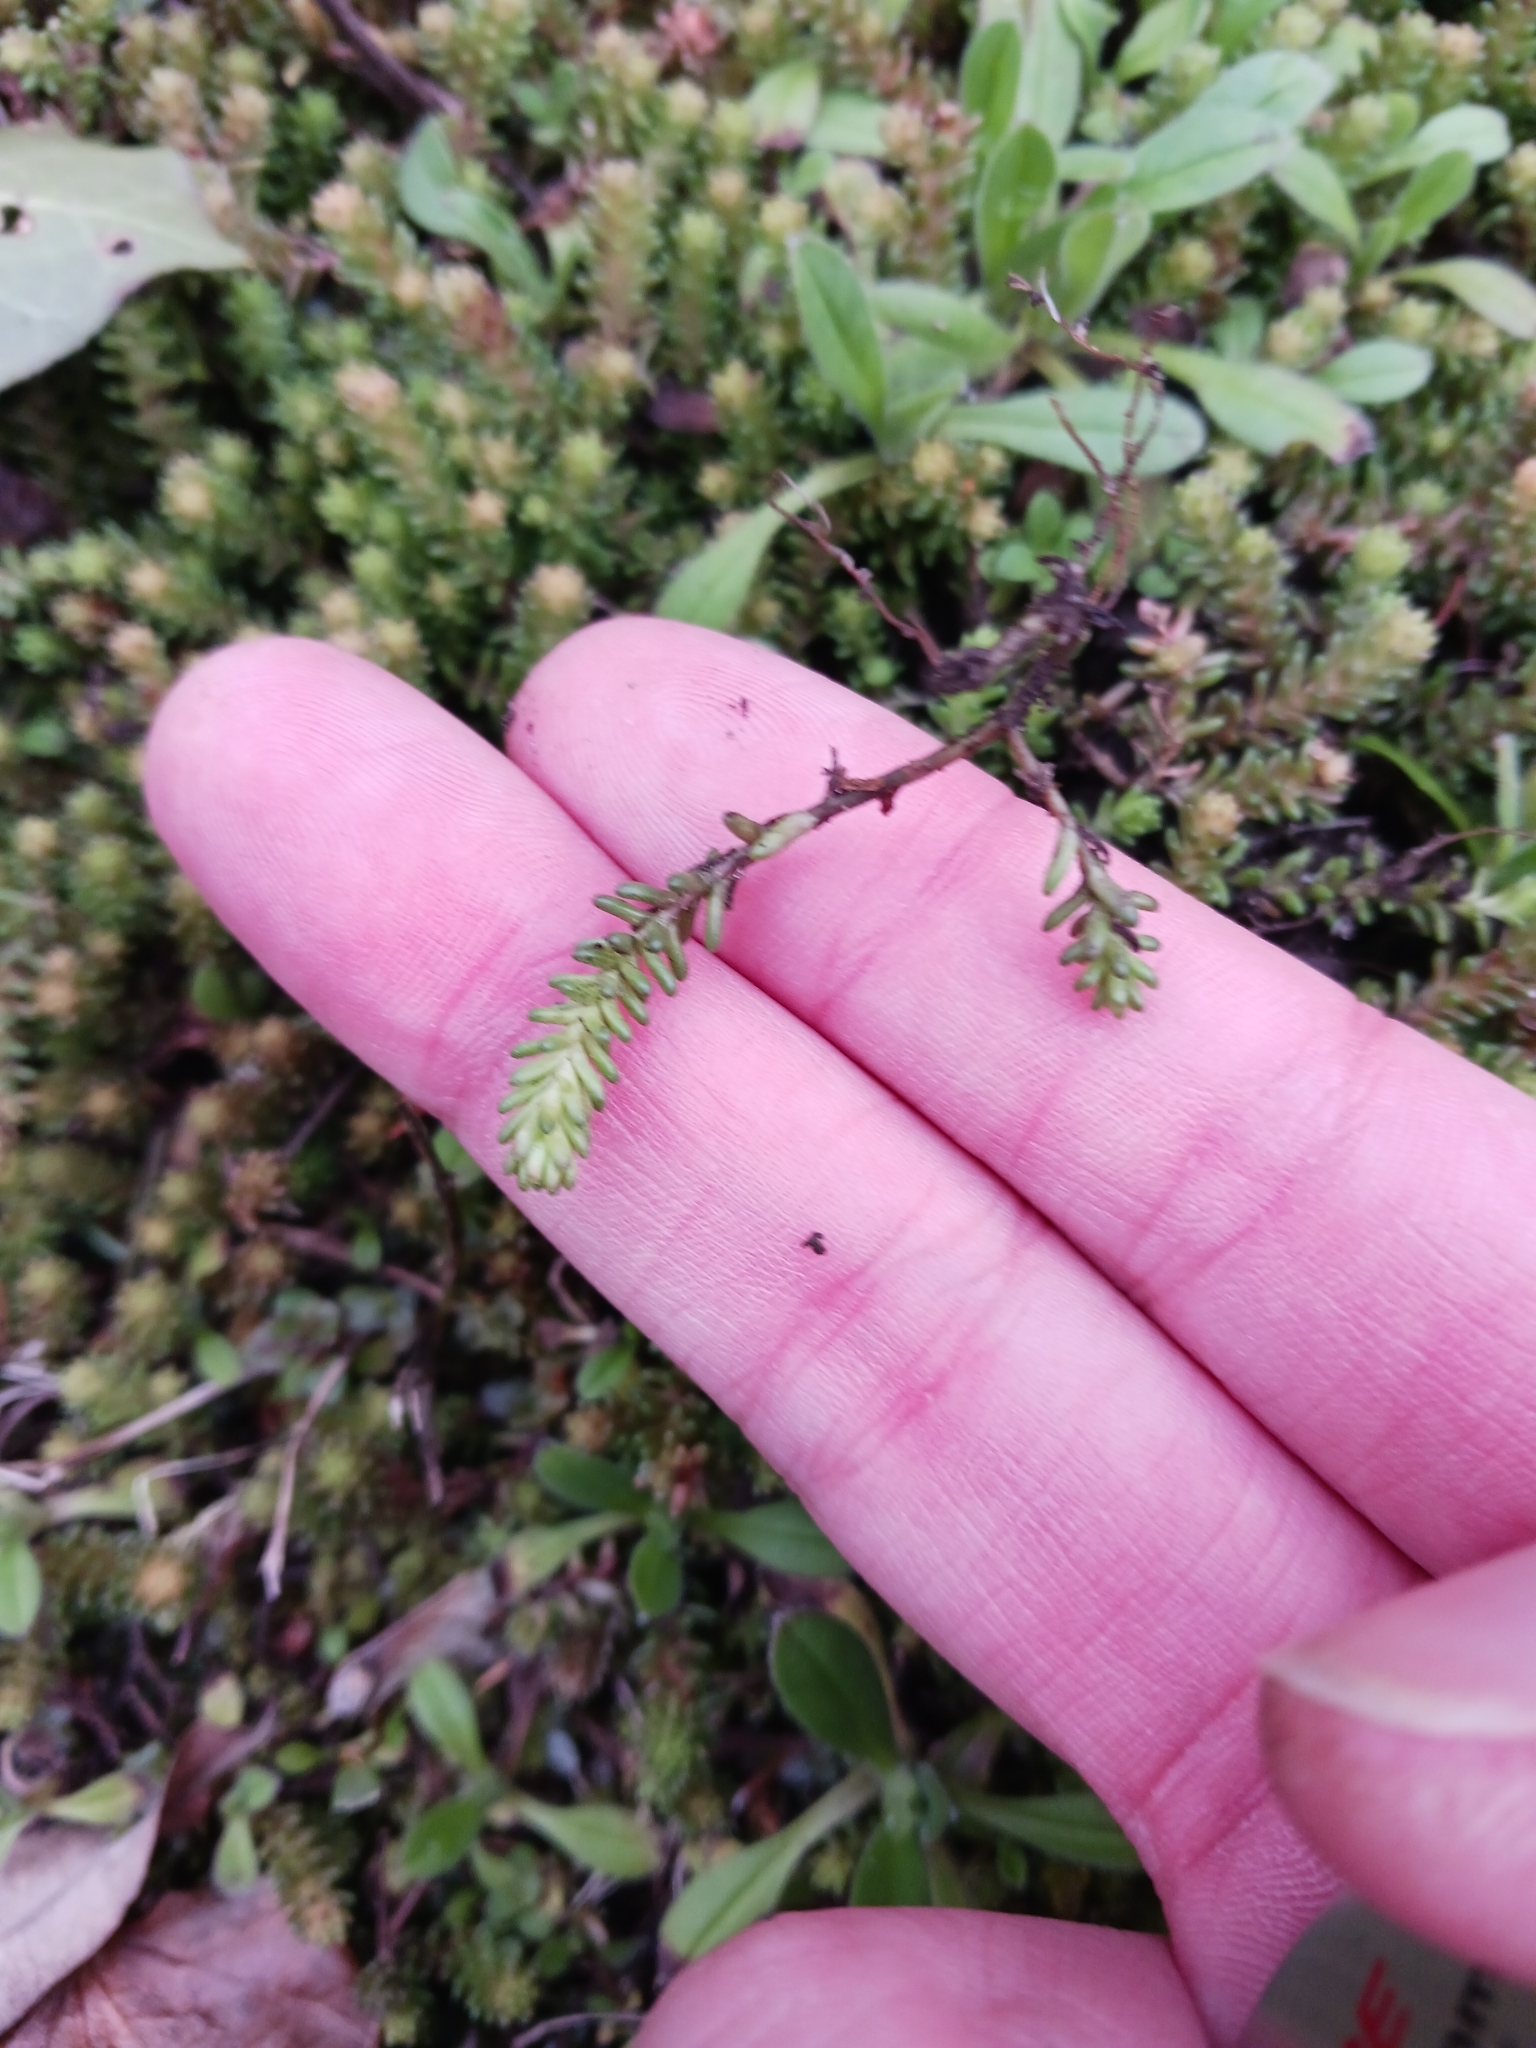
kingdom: Plantae
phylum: Tracheophyta
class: Magnoliopsida
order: Saxifragales
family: Crassulaceae
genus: Sedum
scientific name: Sedum sexangulare
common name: Tasteless stonecrop
